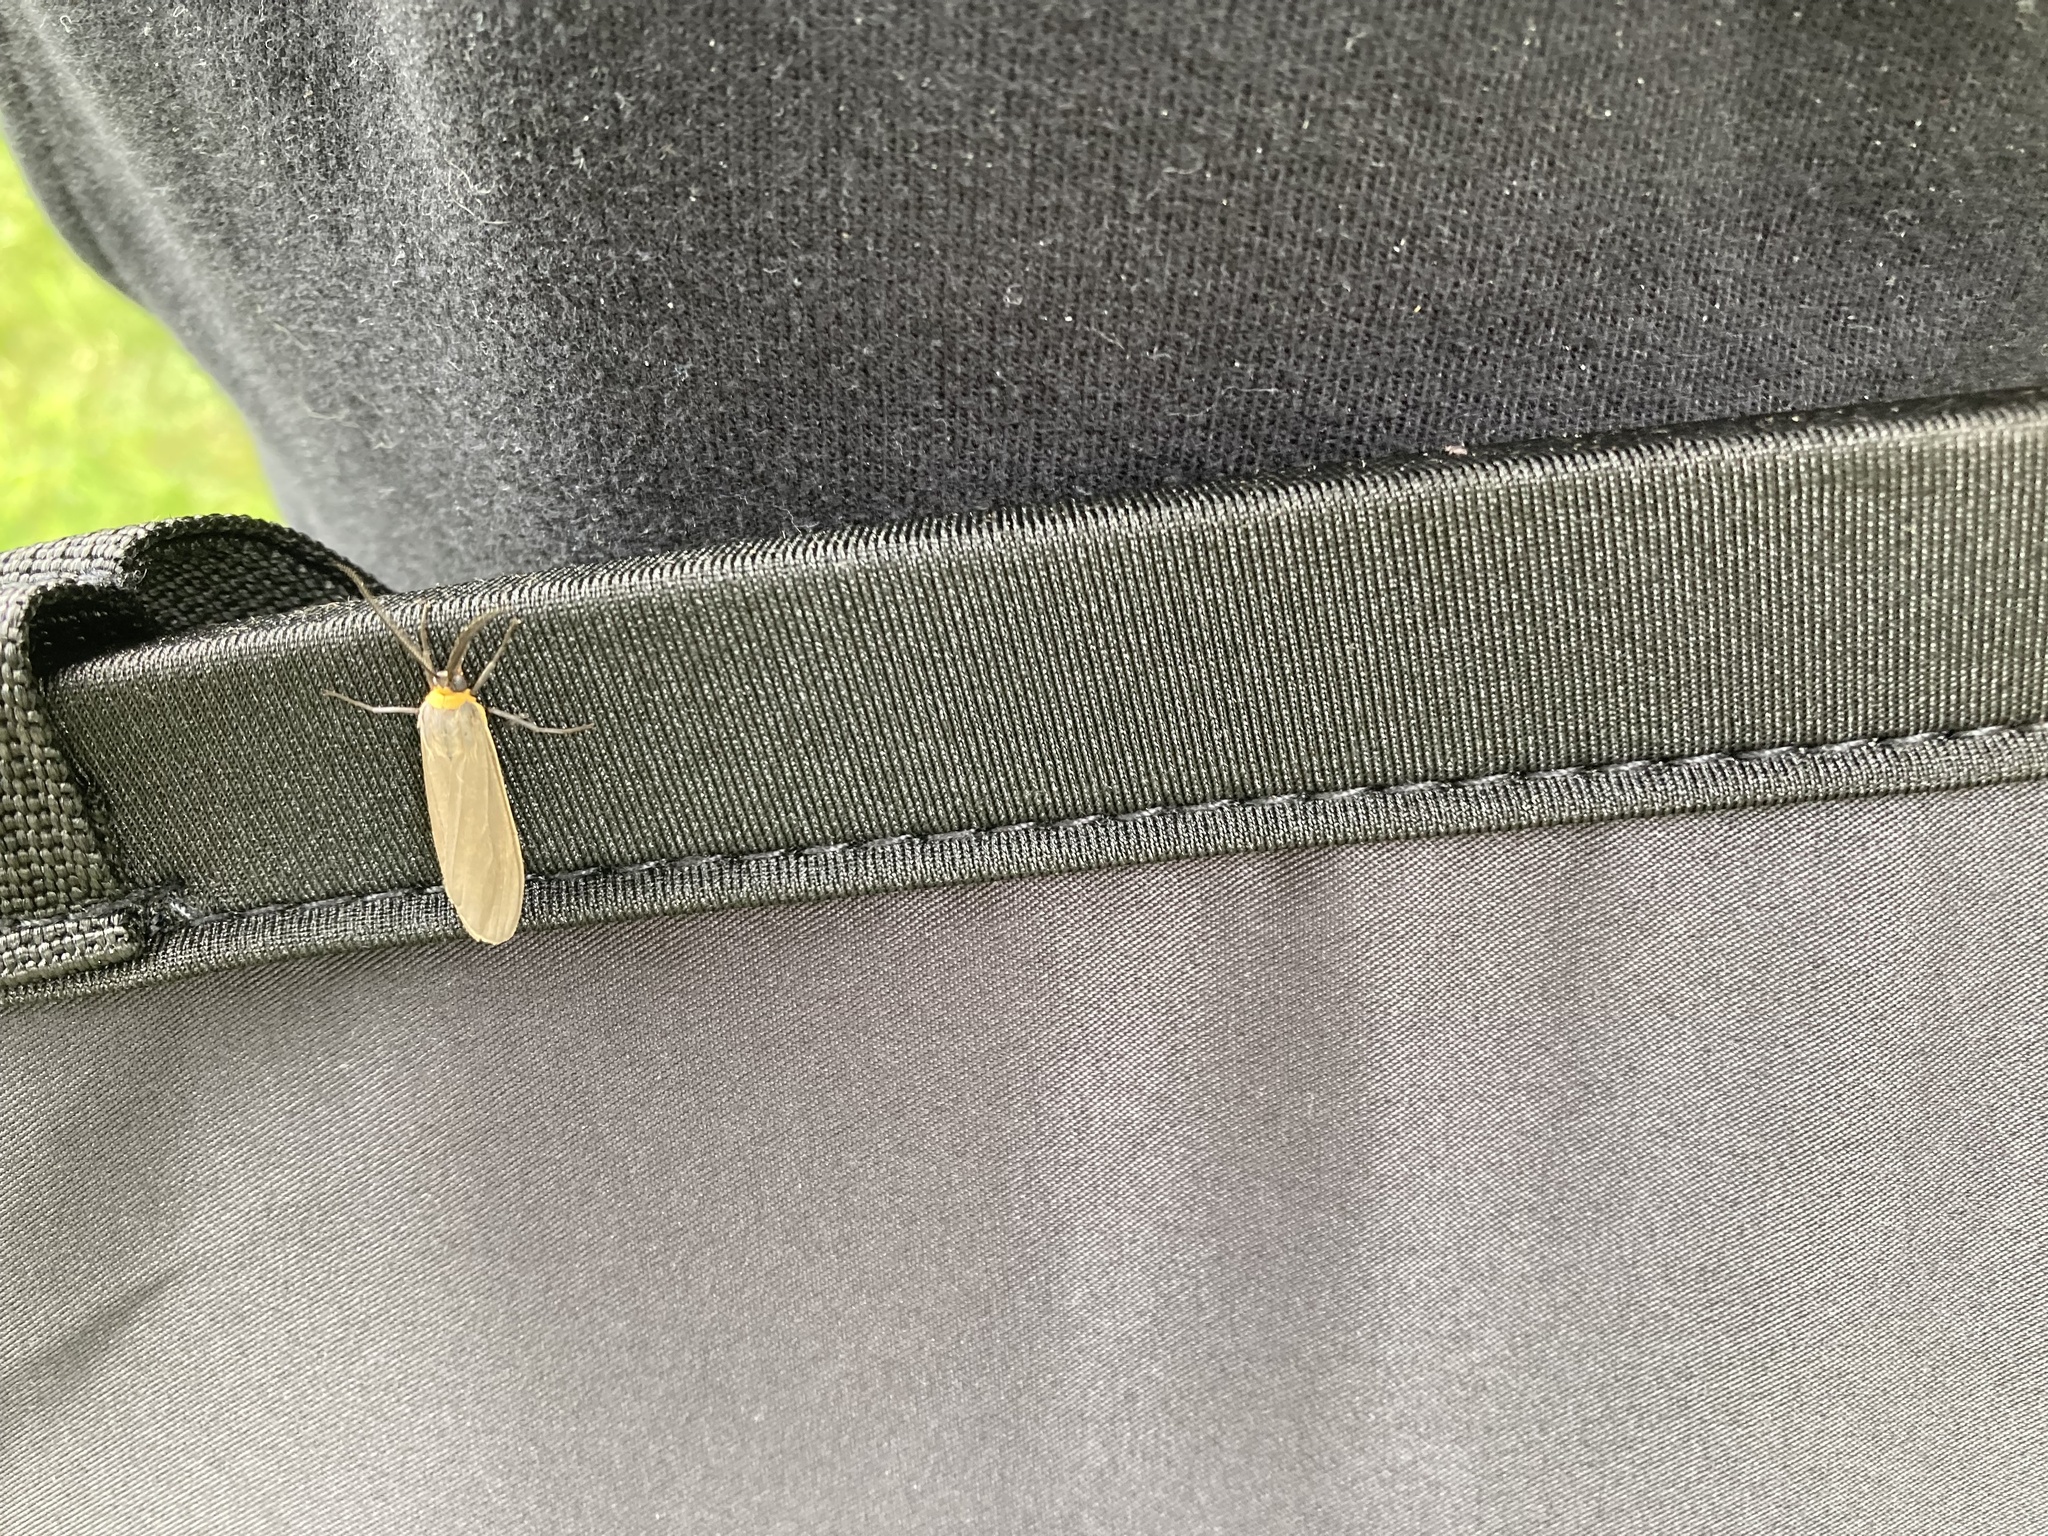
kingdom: Animalia
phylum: Arthropoda
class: Insecta
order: Lepidoptera
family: Erebidae
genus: Cisseps
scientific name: Cisseps fulvicollis
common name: Yellow-collared scape moth
